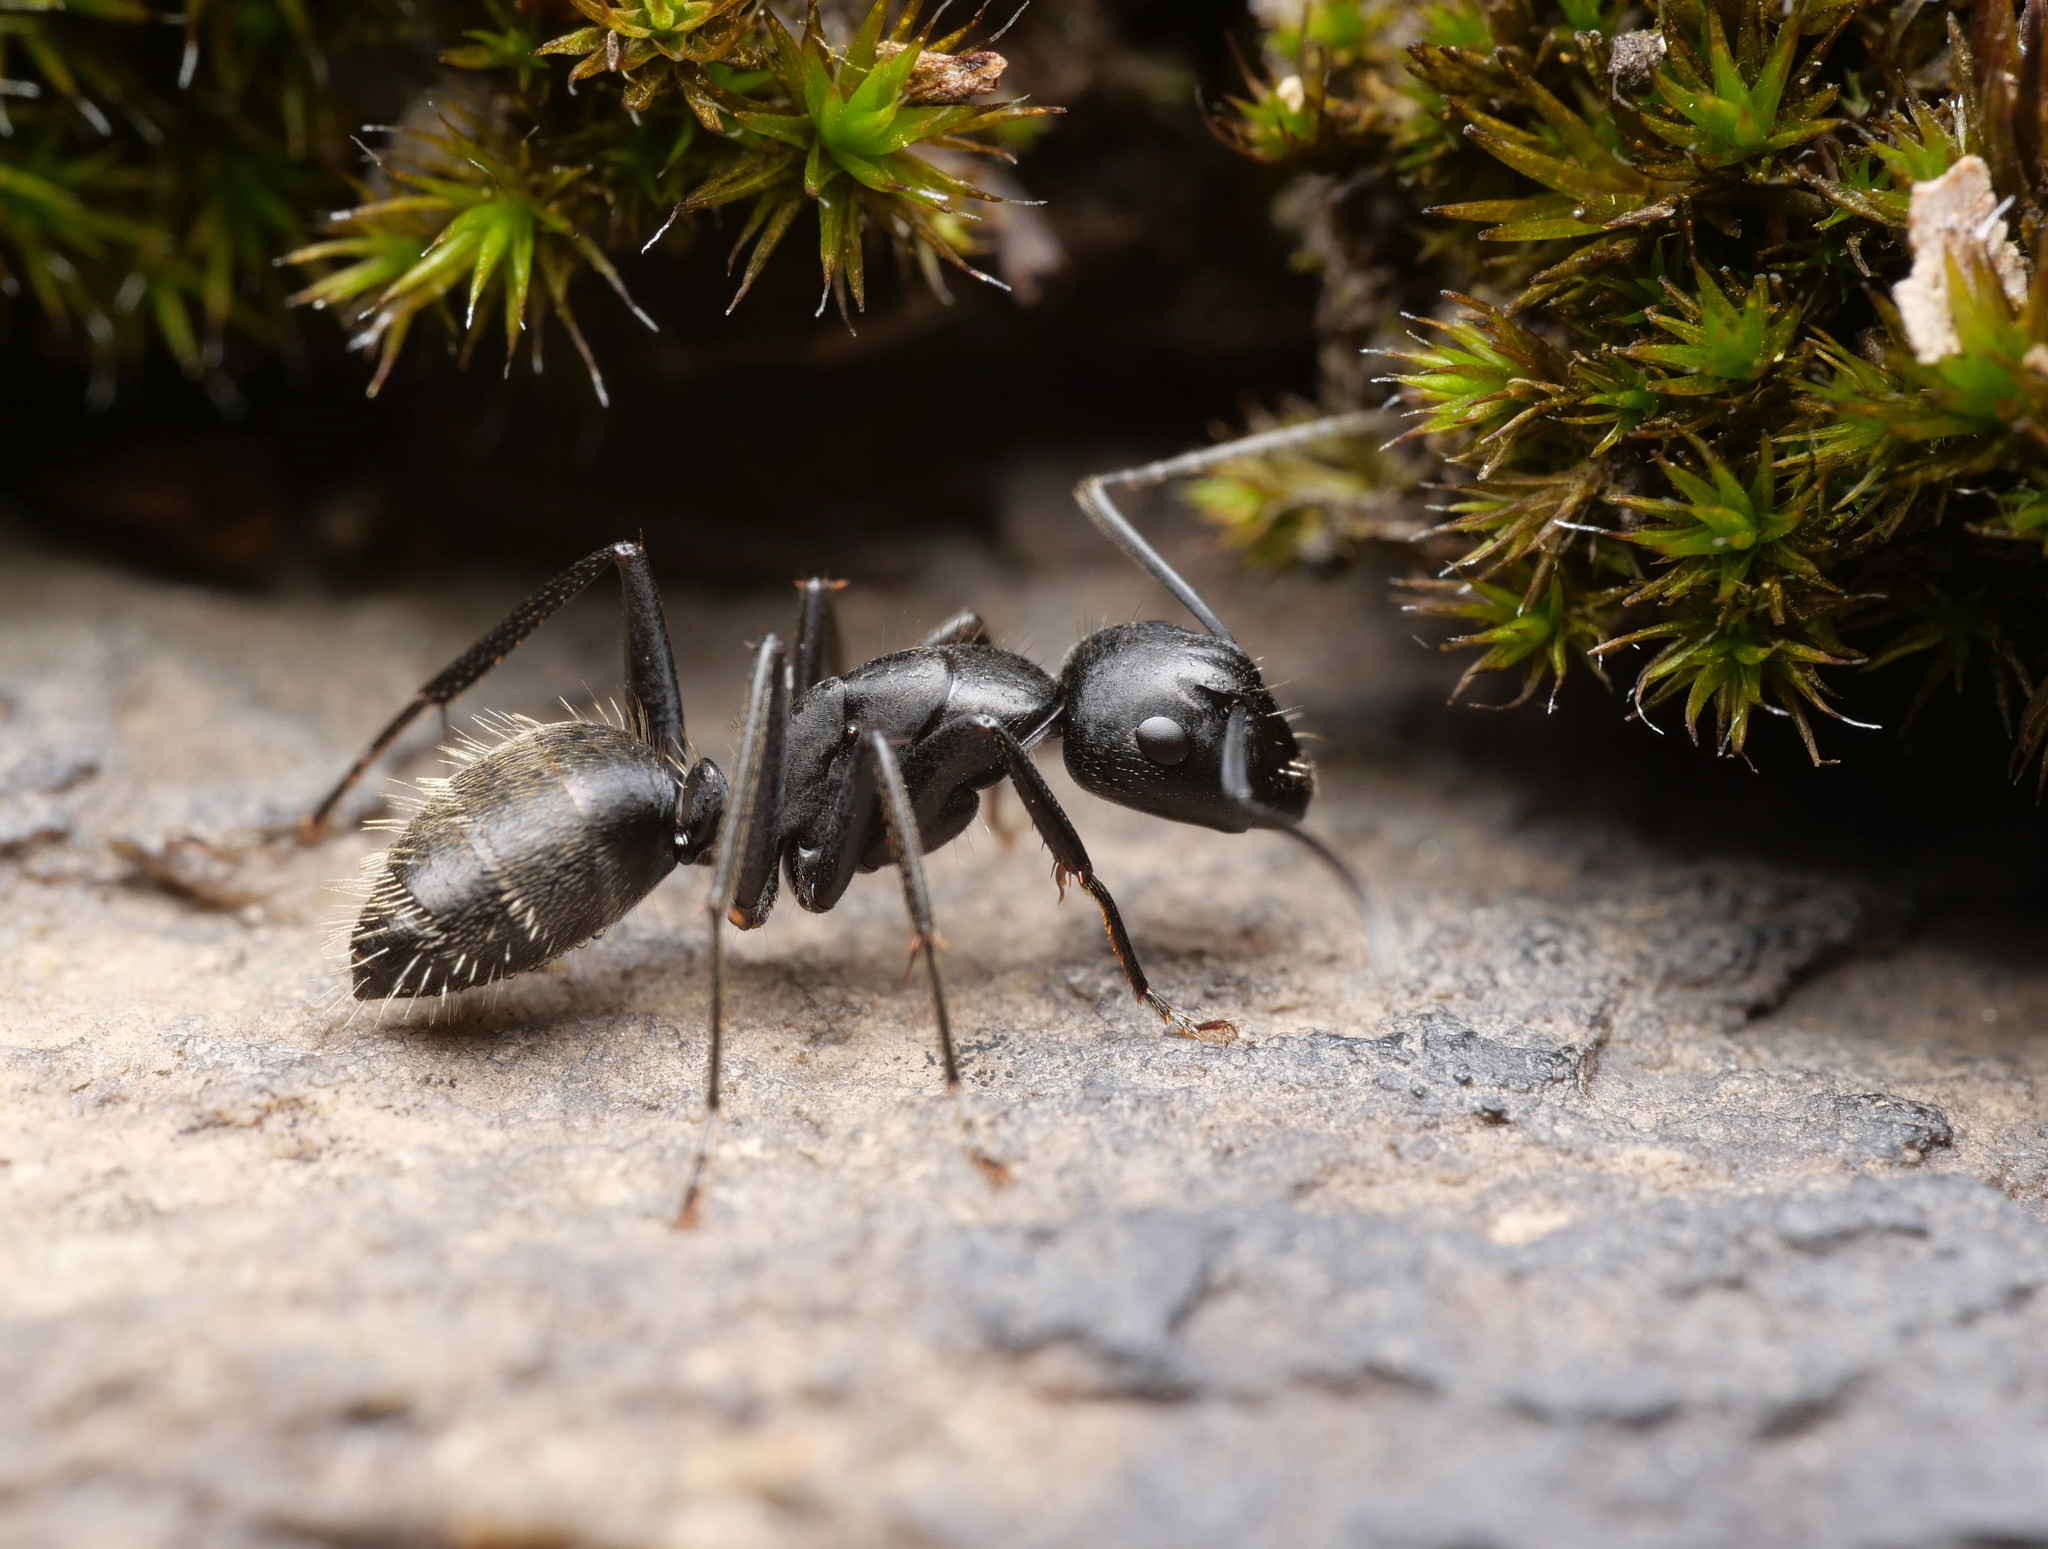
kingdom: Animalia
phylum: Arthropoda
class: Insecta
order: Hymenoptera
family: Formicidae
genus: Camponotus
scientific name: Camponotus vagus
